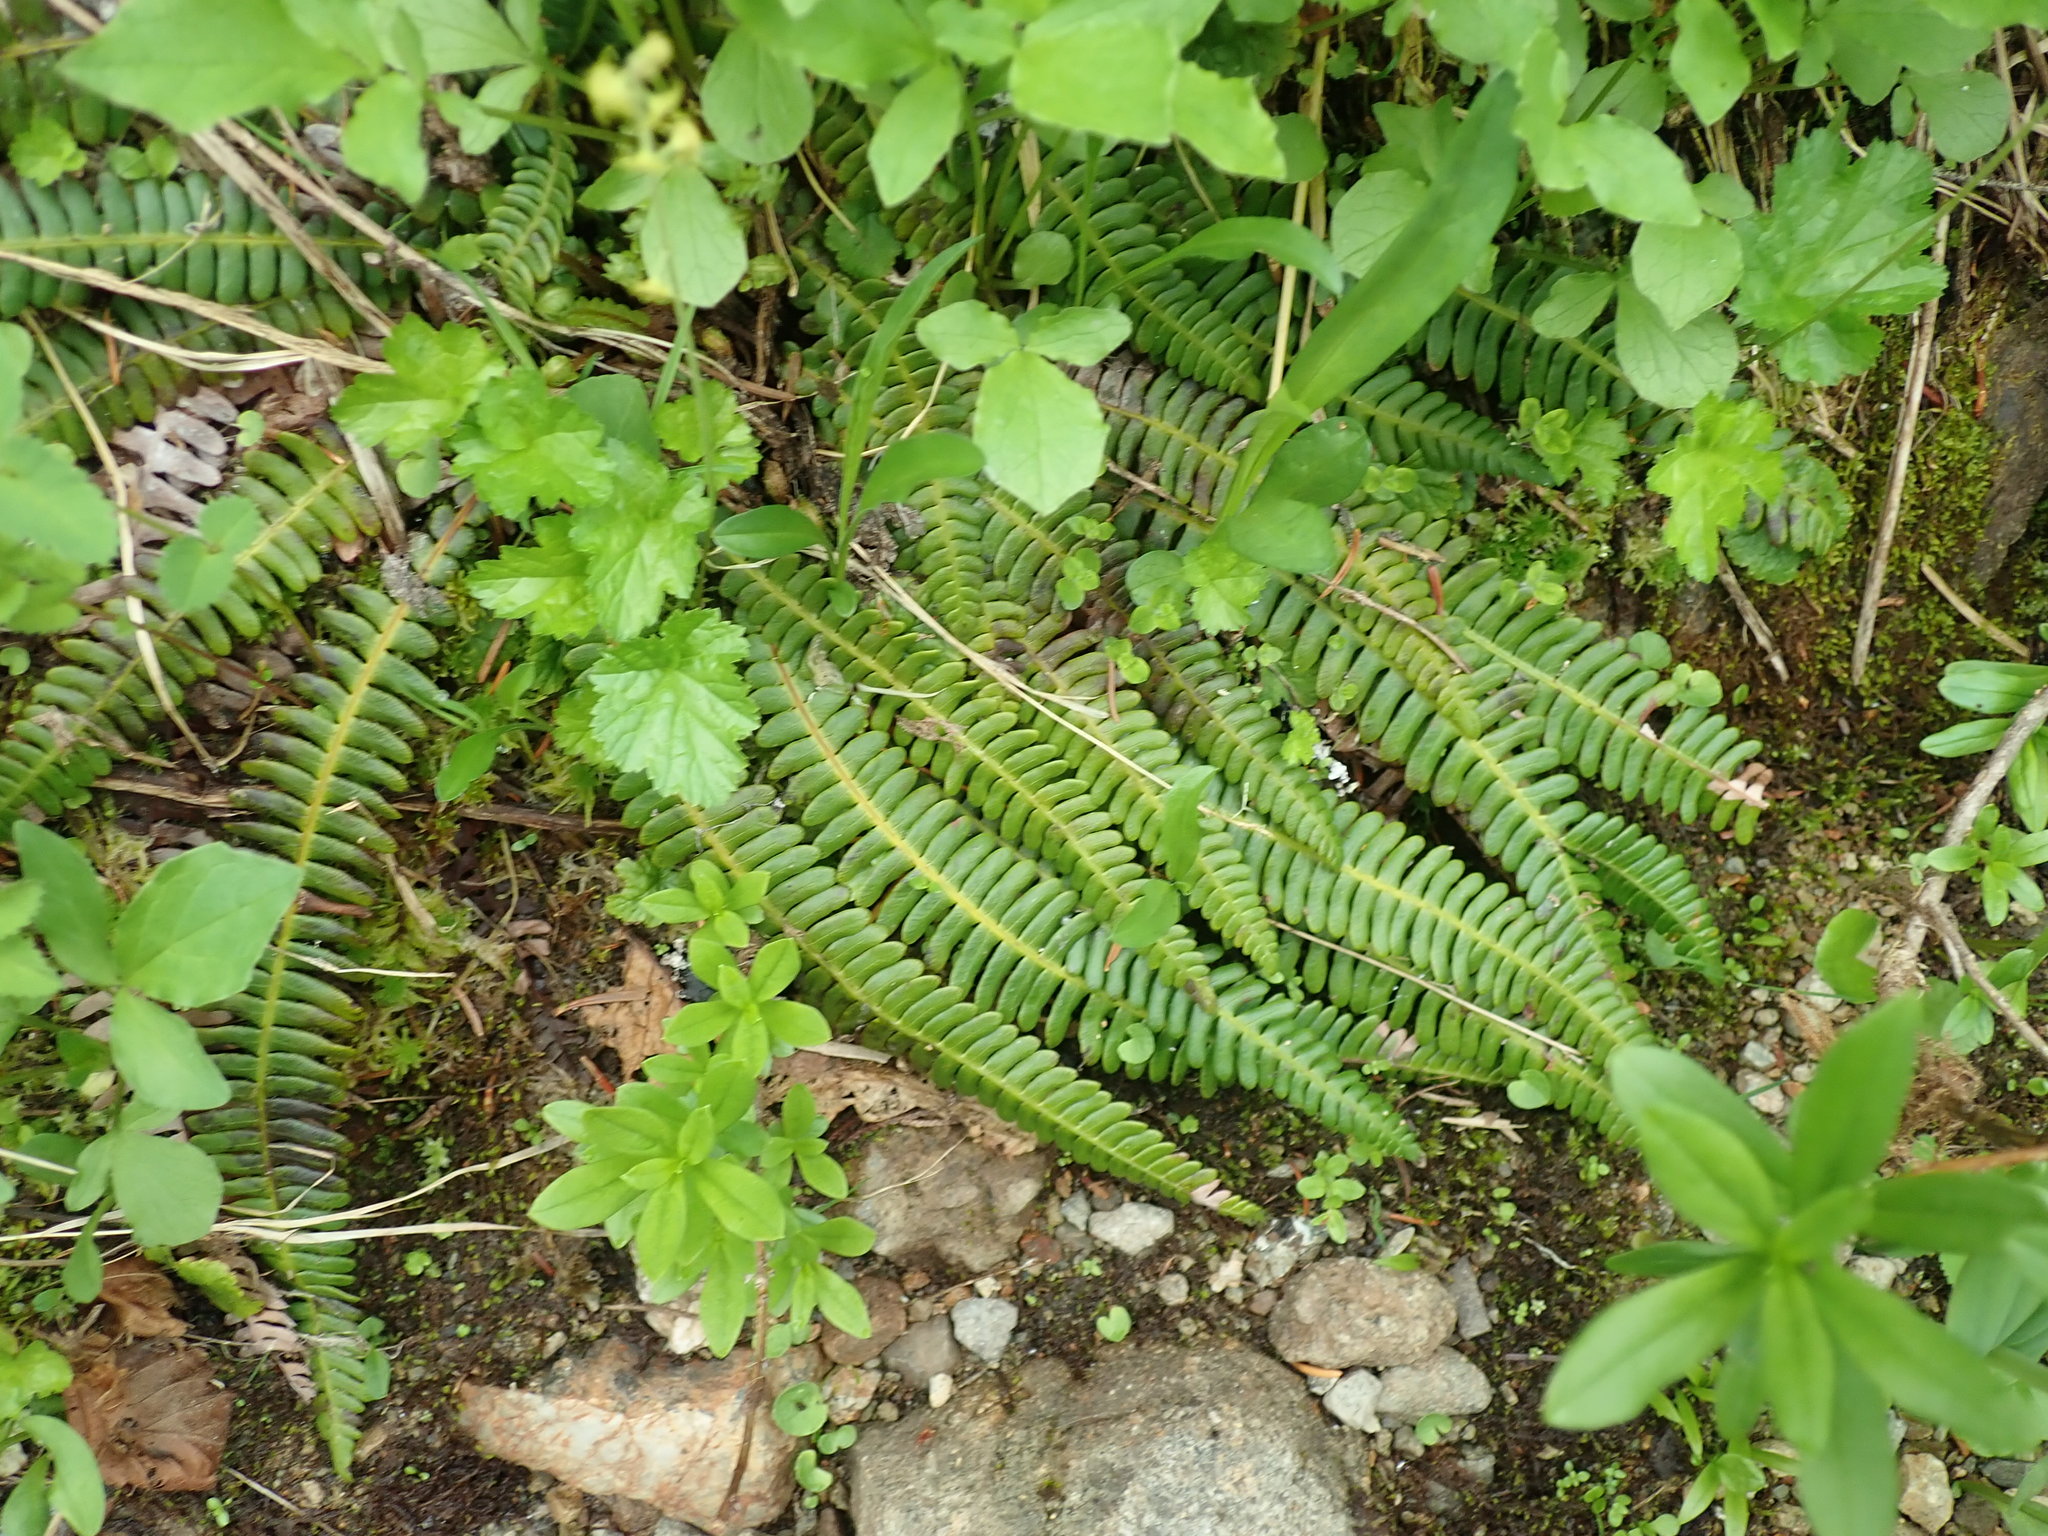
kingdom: Plantae
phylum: Tracheophyta
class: Polypodiopsida
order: Polypodiales
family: Blechnaceae
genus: Struthiopteris
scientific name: Struthiopteris spicant
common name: Deer fern
